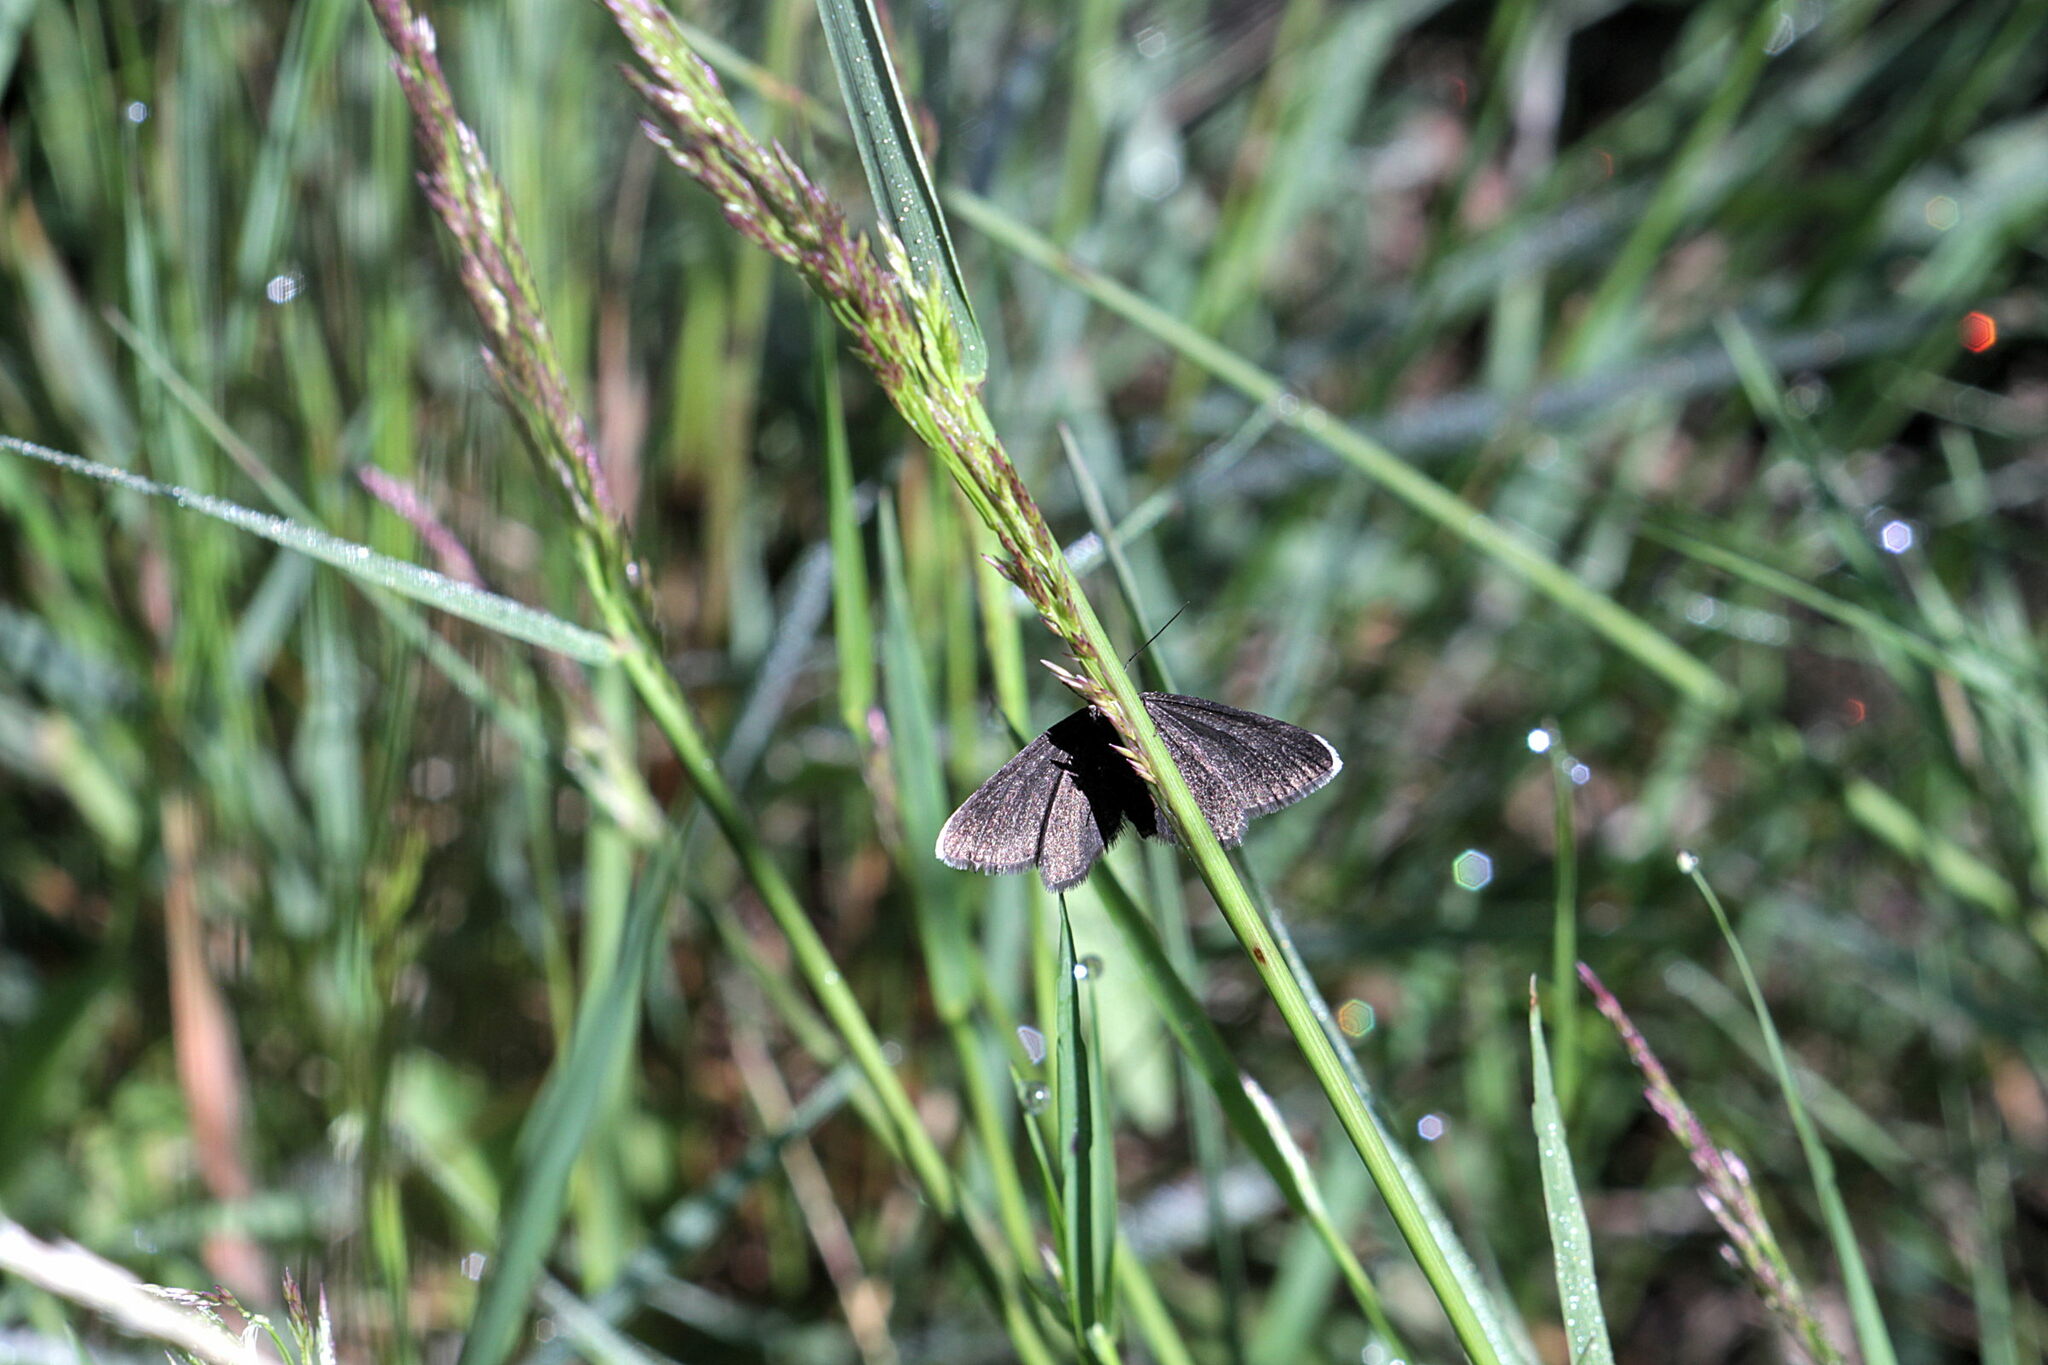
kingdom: Animalia
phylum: Arthropoda
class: Insecta
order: Lepidoptera
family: Geometridae
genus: Odezia
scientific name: Odezia atrata
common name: Chimney sweeper
